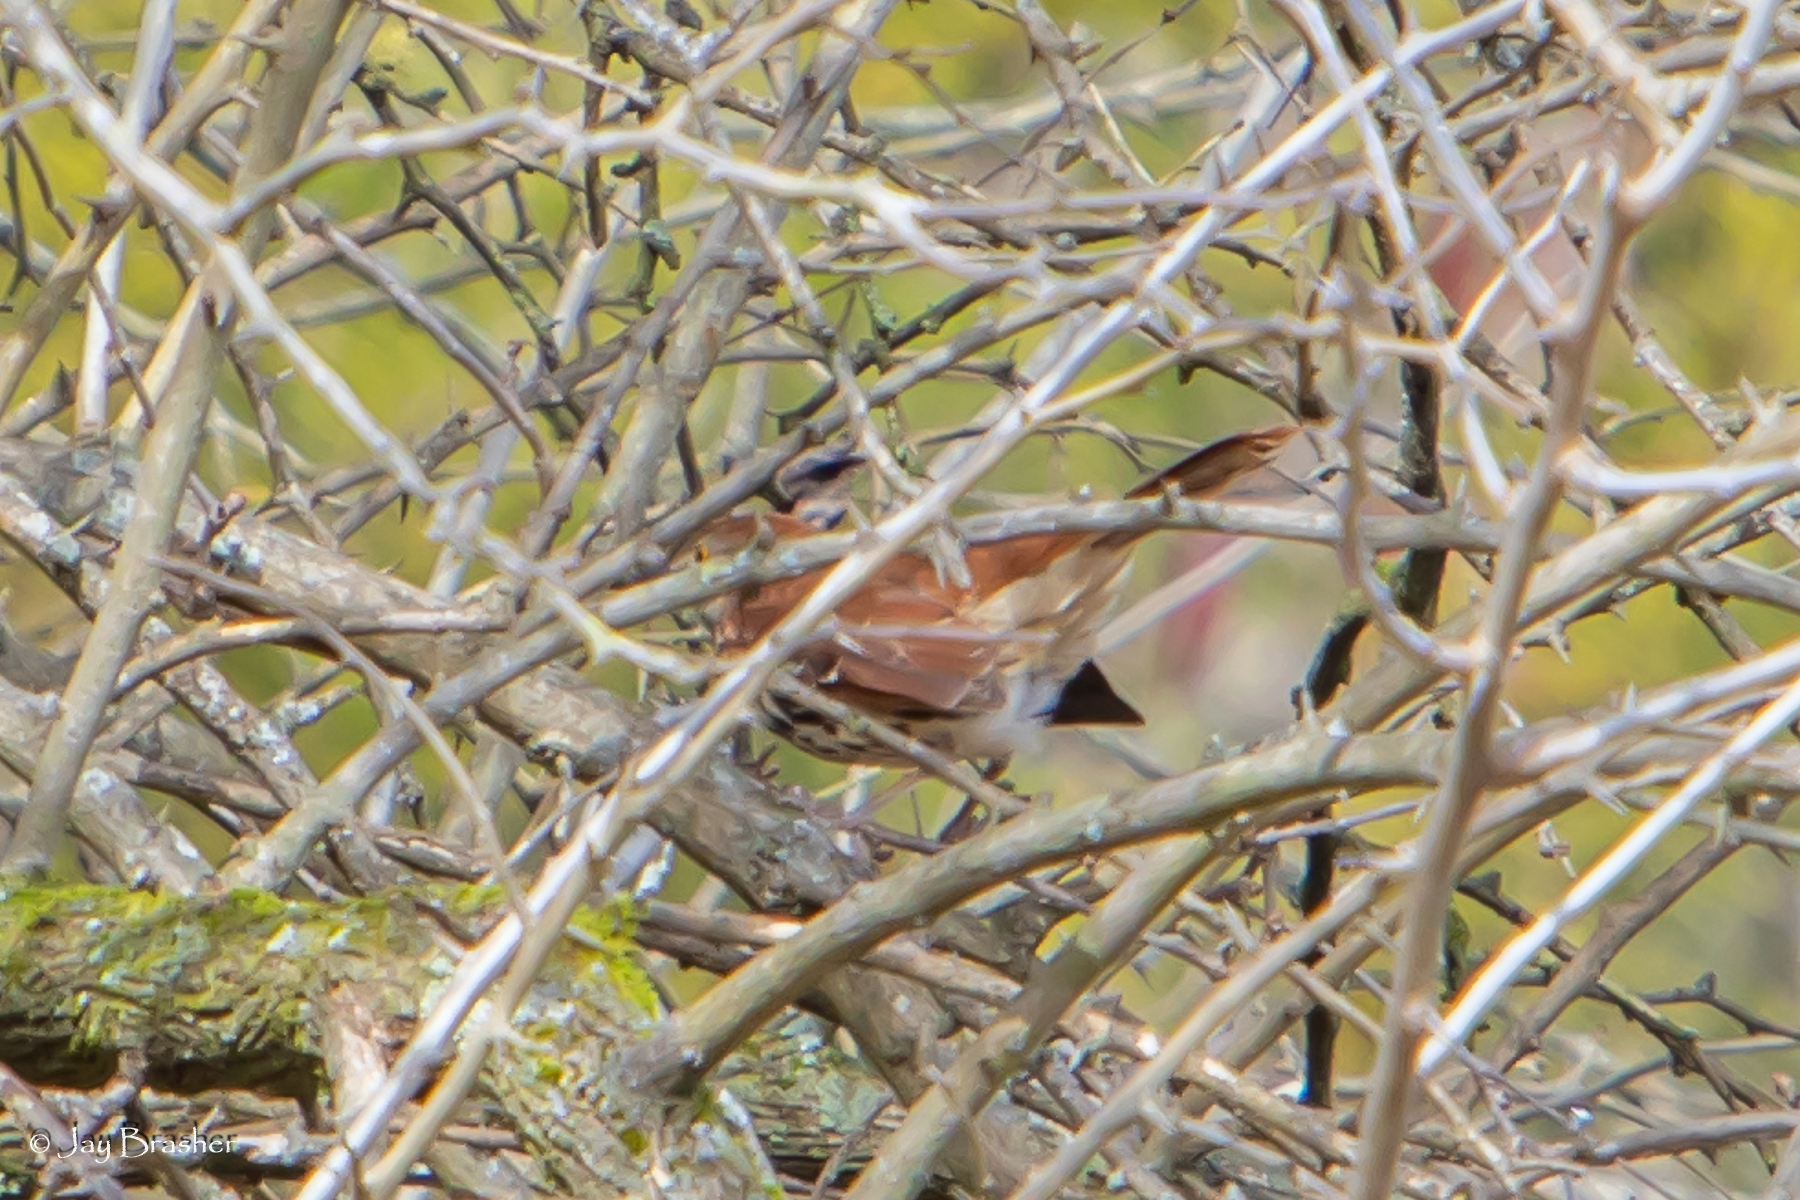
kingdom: Animalia
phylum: Chordata
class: Aves
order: Passeriformes
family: Mimidae
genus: Toxostoma
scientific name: Toxostoma rufum
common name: Brown thrasher
